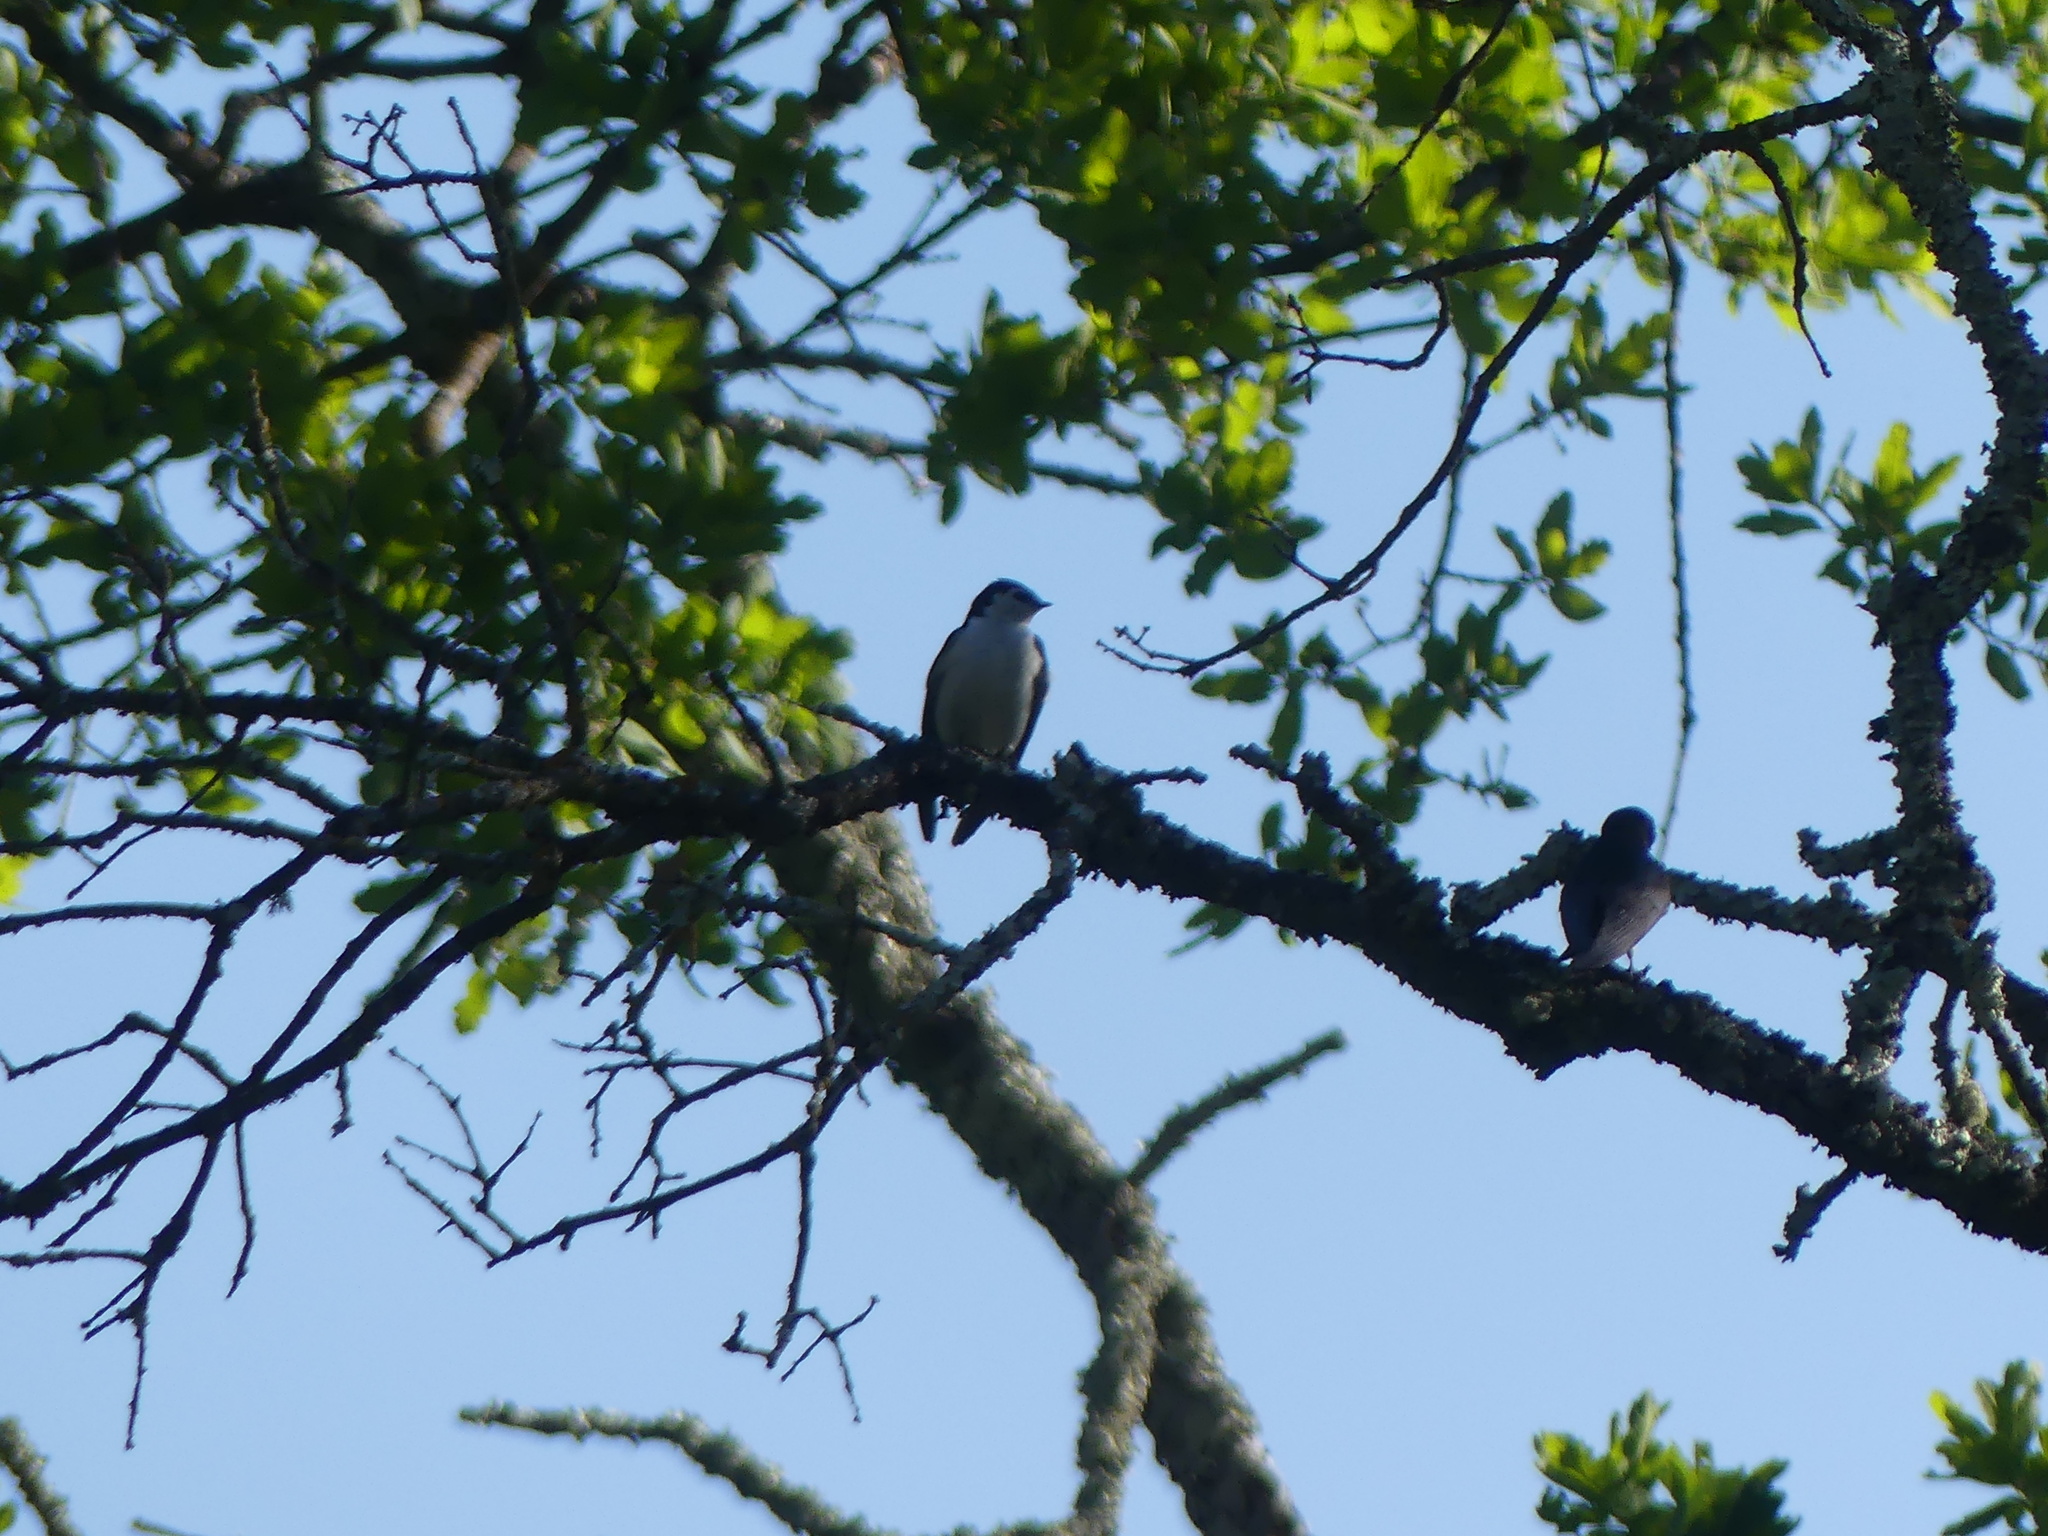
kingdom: Animalia
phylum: Chordata
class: Aves
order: Passeriformes
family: Hirundinidae
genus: Tachycineta
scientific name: Tachycineta thalassina
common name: Violet-green swallow
